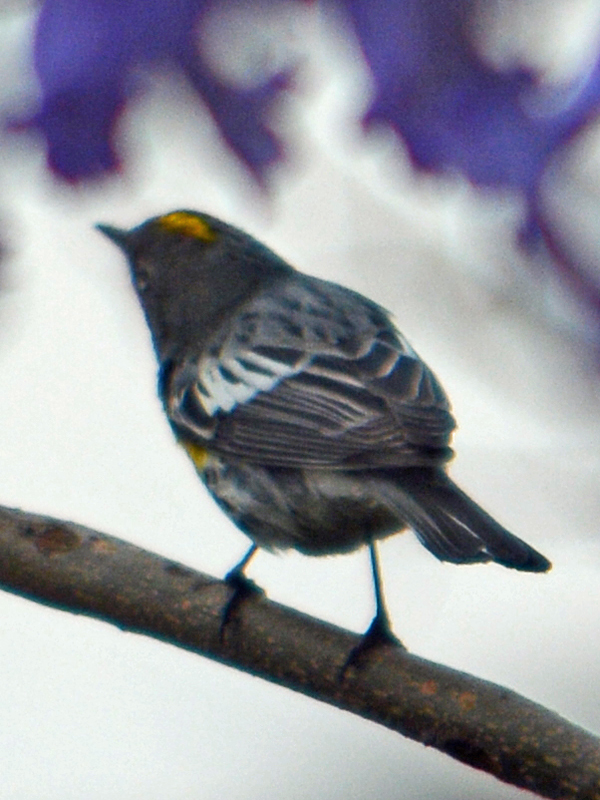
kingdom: Animalia
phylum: Chordata
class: Aves
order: Passeriformes
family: Parulidae
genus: Setophaga
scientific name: Setophaga coronata
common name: Myrtle warbler
